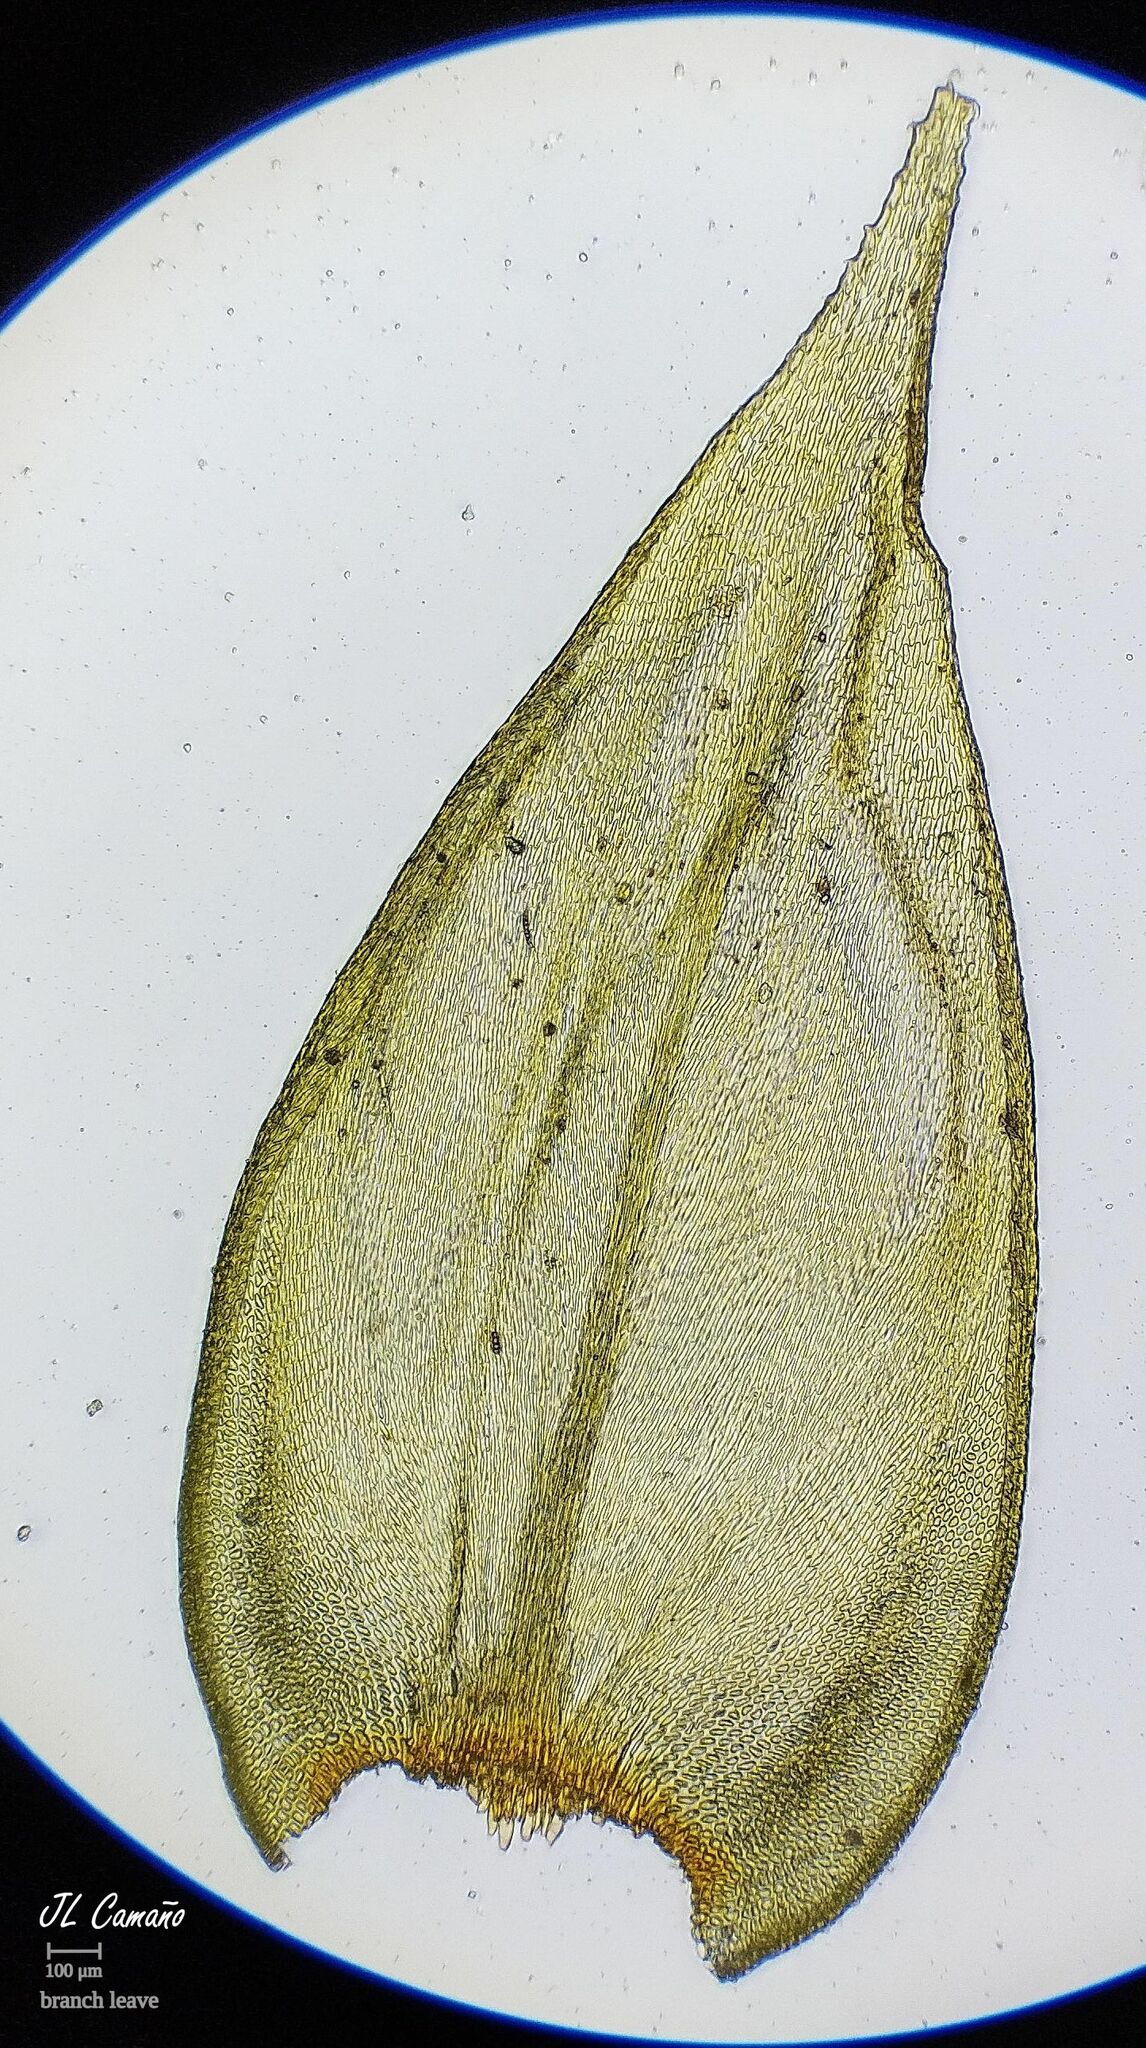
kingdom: Plantae
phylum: Bryophyta
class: Bryopsida
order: Hypnales
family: Antitrichiaceae
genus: Antitrichia
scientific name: Antitrichia curtipendula
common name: Pendulous wing-moss
